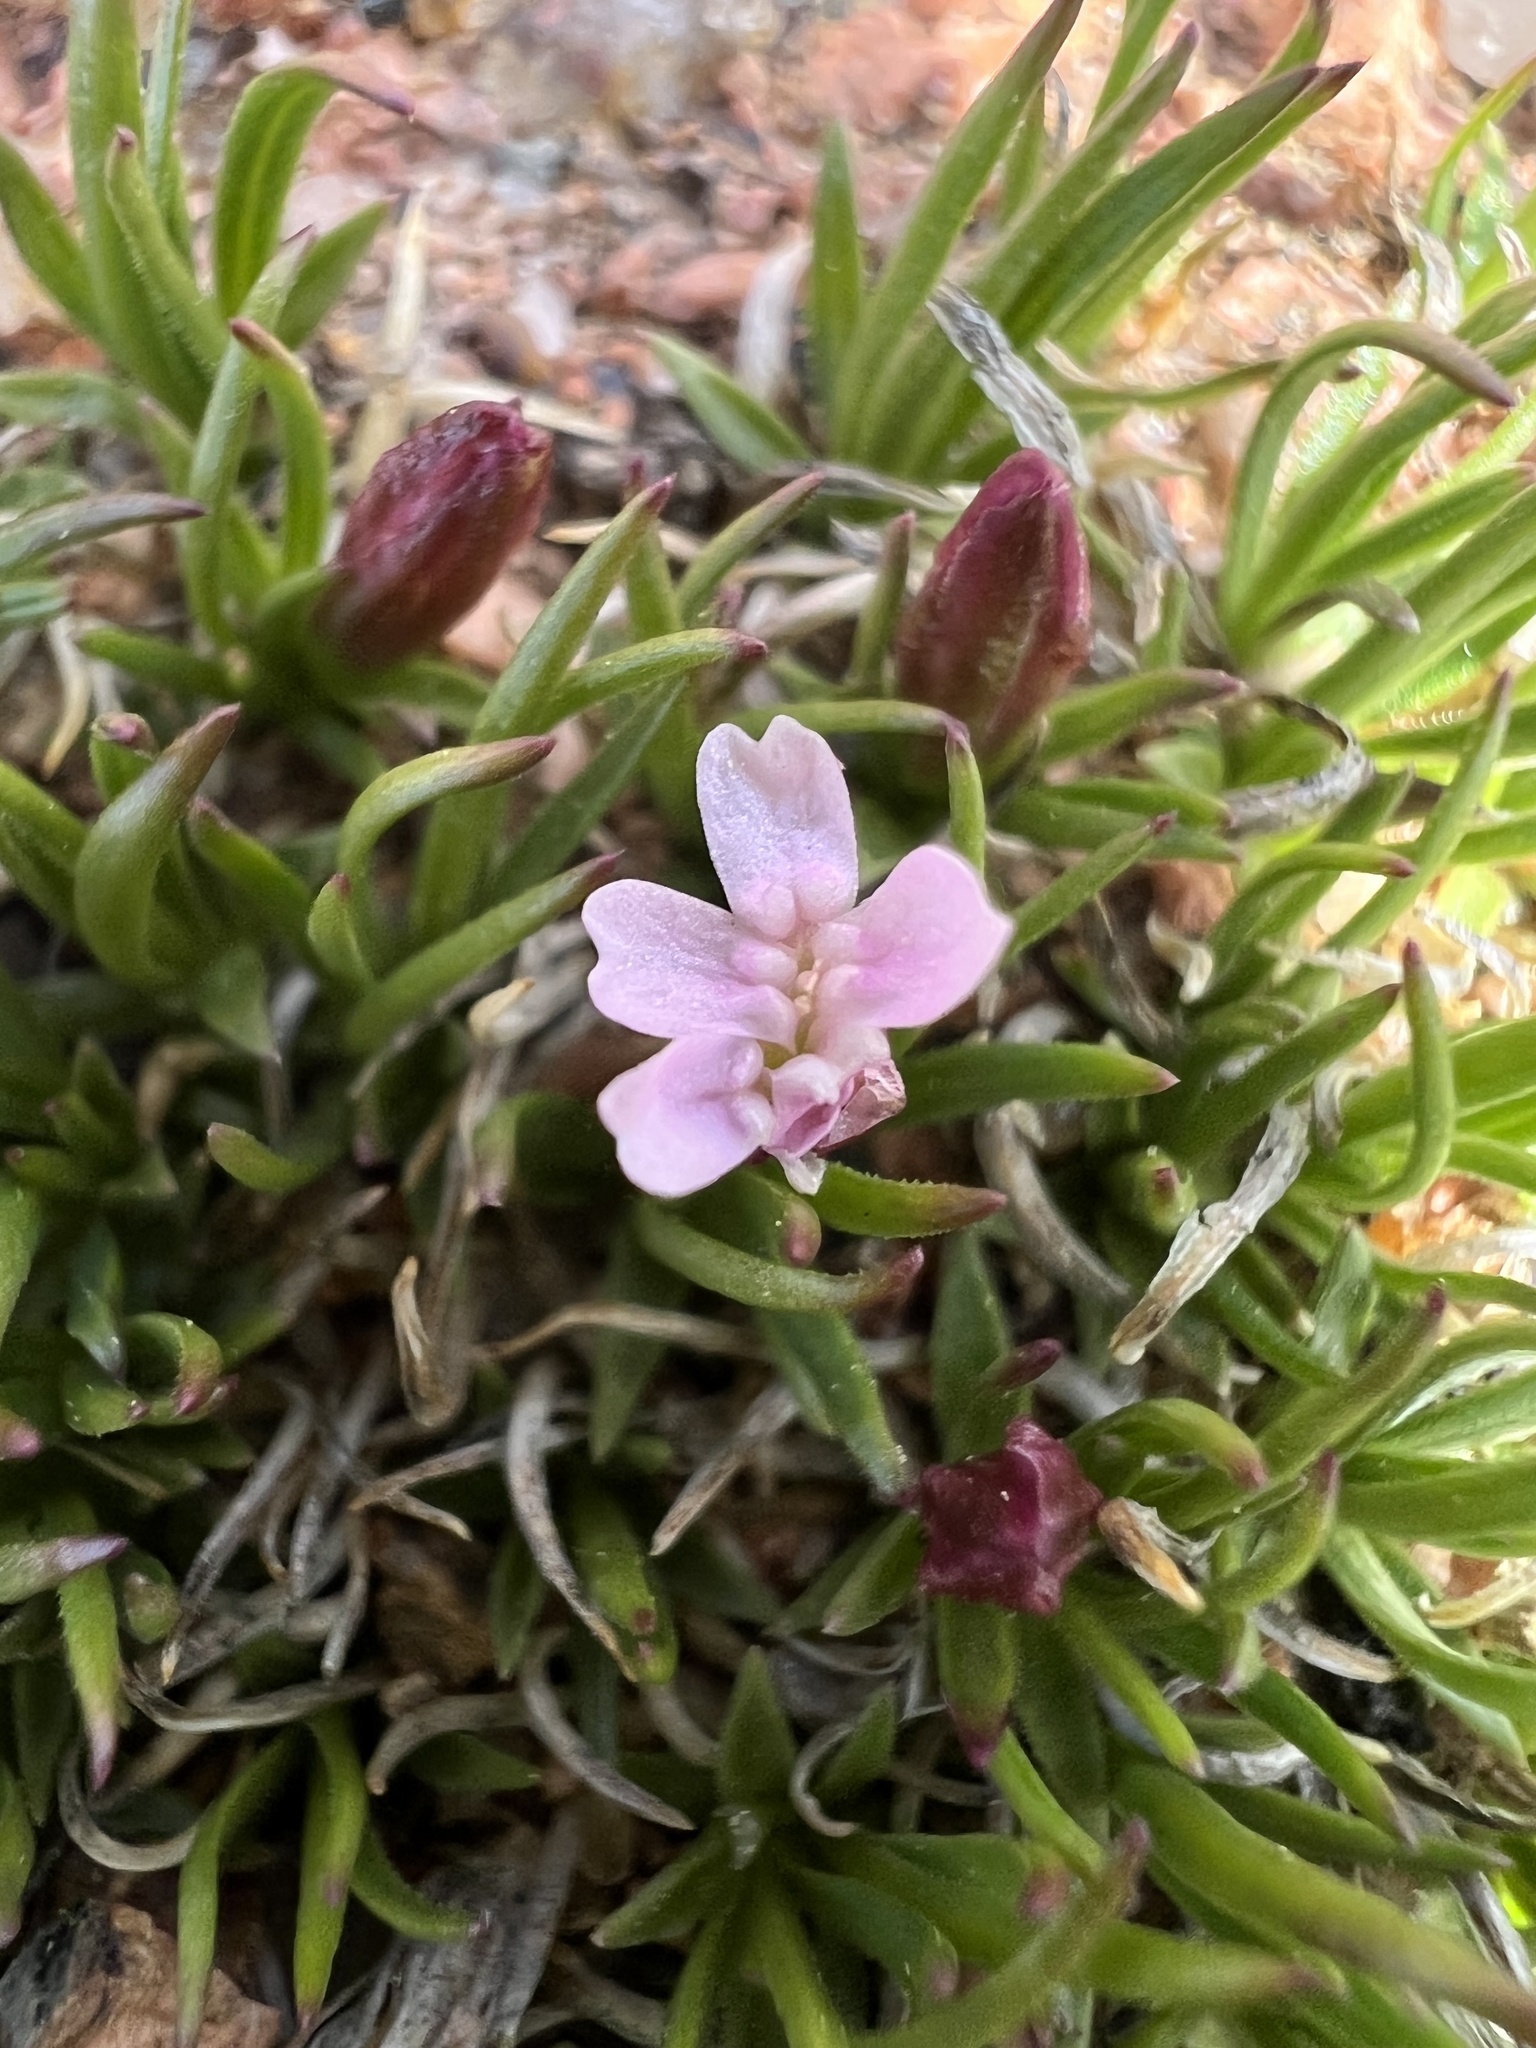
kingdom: Plantae
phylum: Tracheophyta
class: Magnoliopsida
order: Caryophyllales
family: Caryophyllaceae
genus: Silene
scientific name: Silene acaulis
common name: Moss campion
